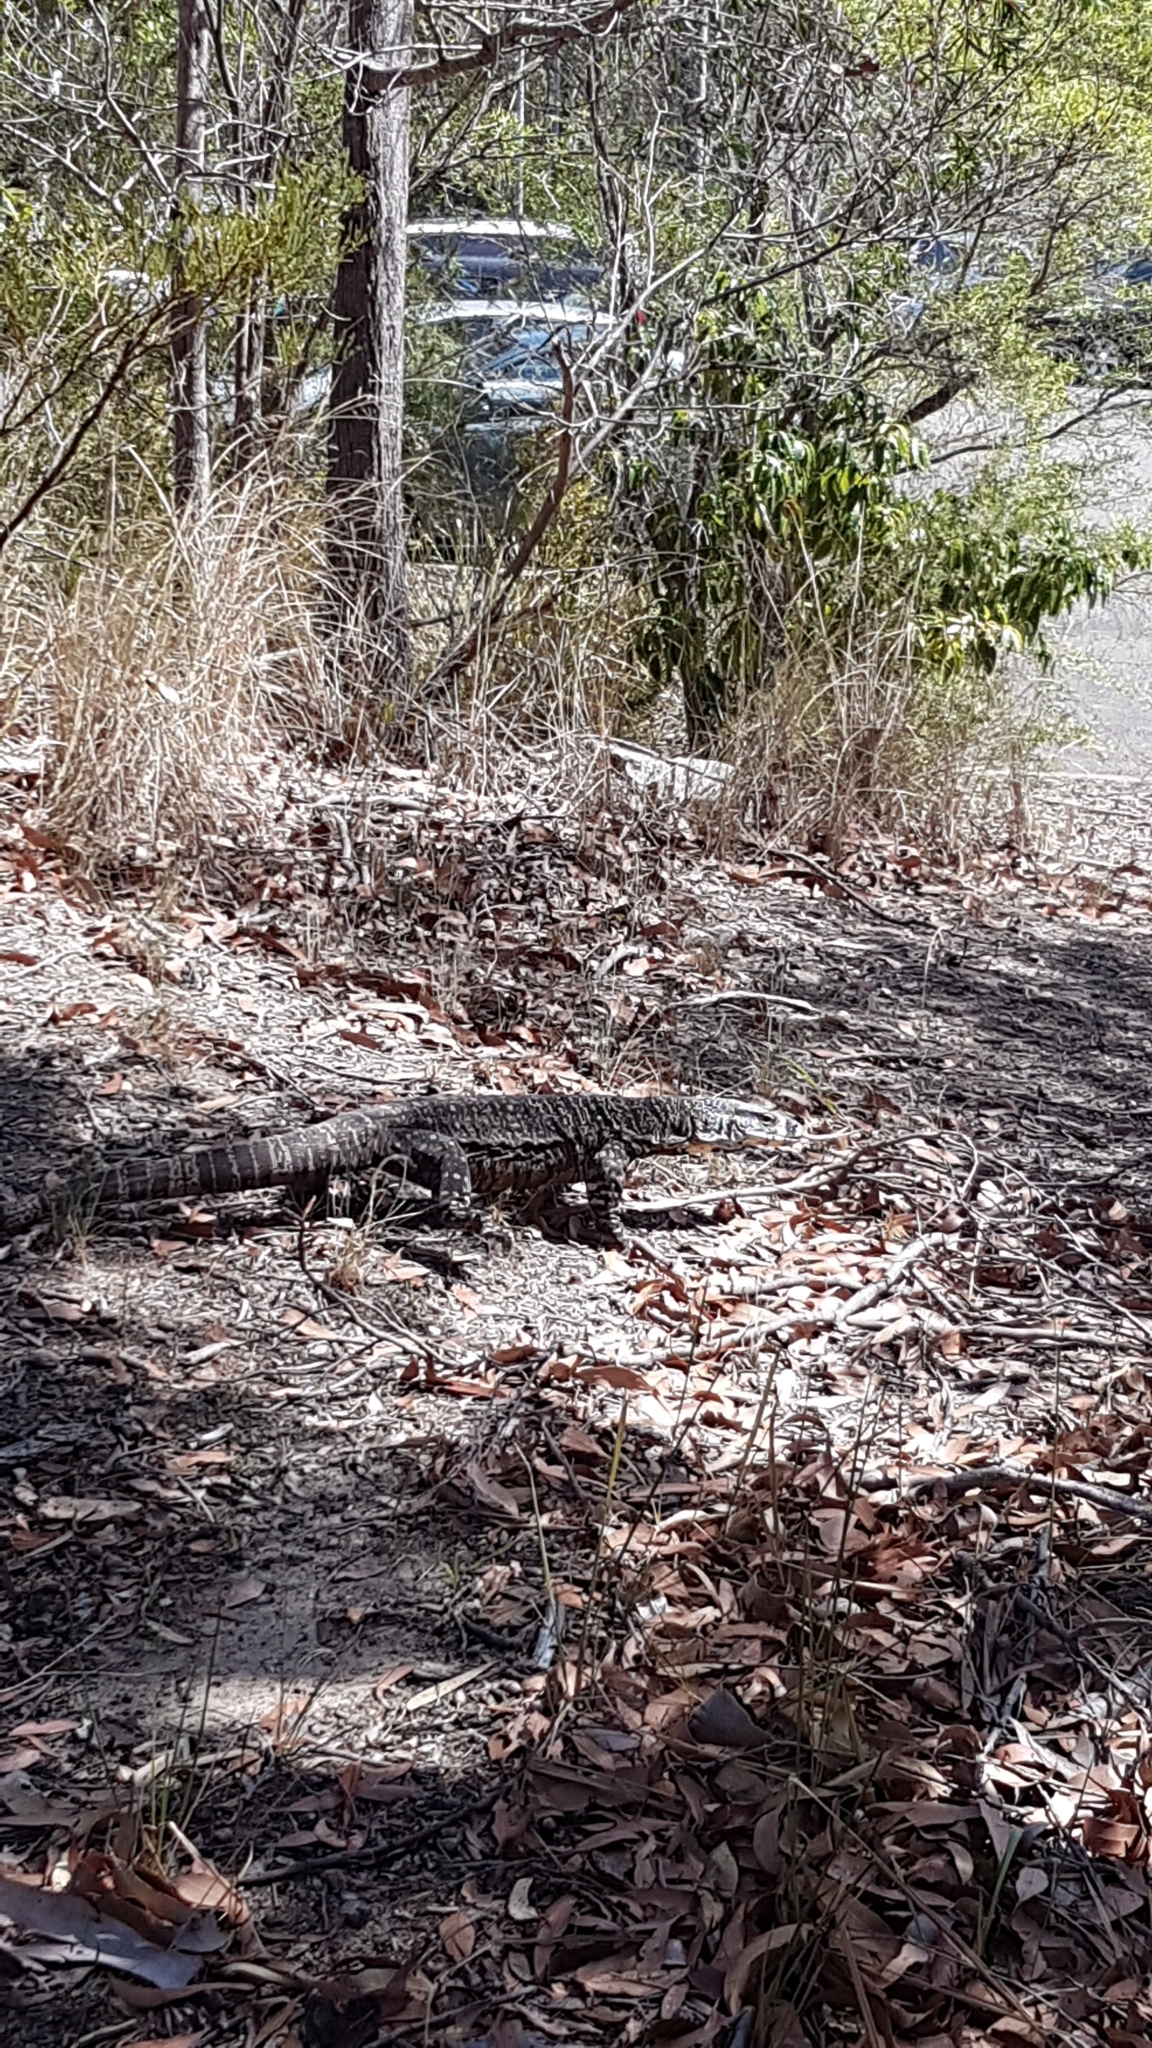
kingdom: Animalia
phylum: Chordata
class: Squamata
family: Varanidae
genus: Varanus
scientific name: Varanus varius
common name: Lace monitor
